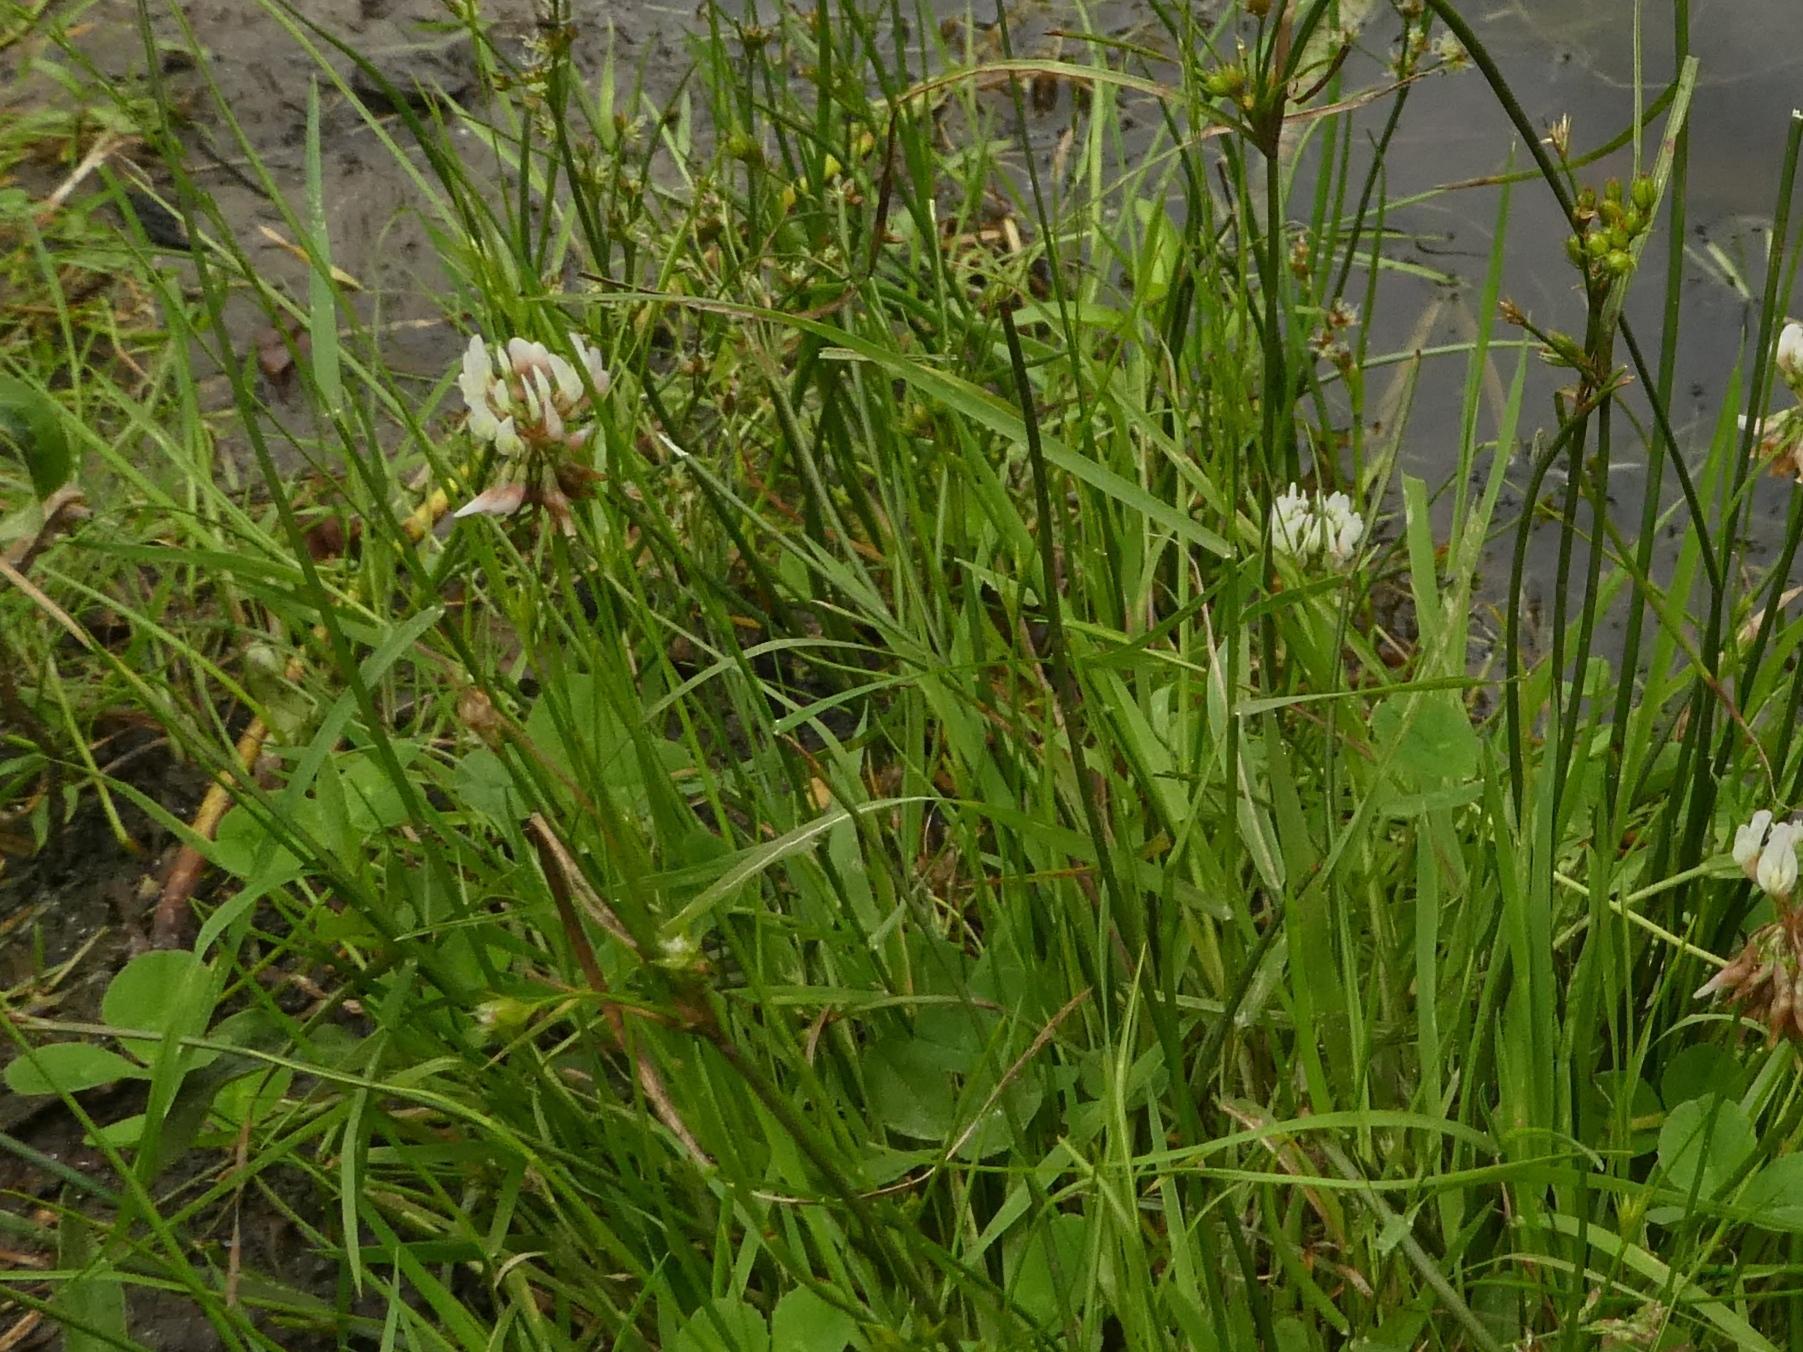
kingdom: Plantae
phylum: Tracheophyta
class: Magnoliopsida
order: Fabales
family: Fabaceae
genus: Trifolium
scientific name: Trifolium repens
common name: White clover
